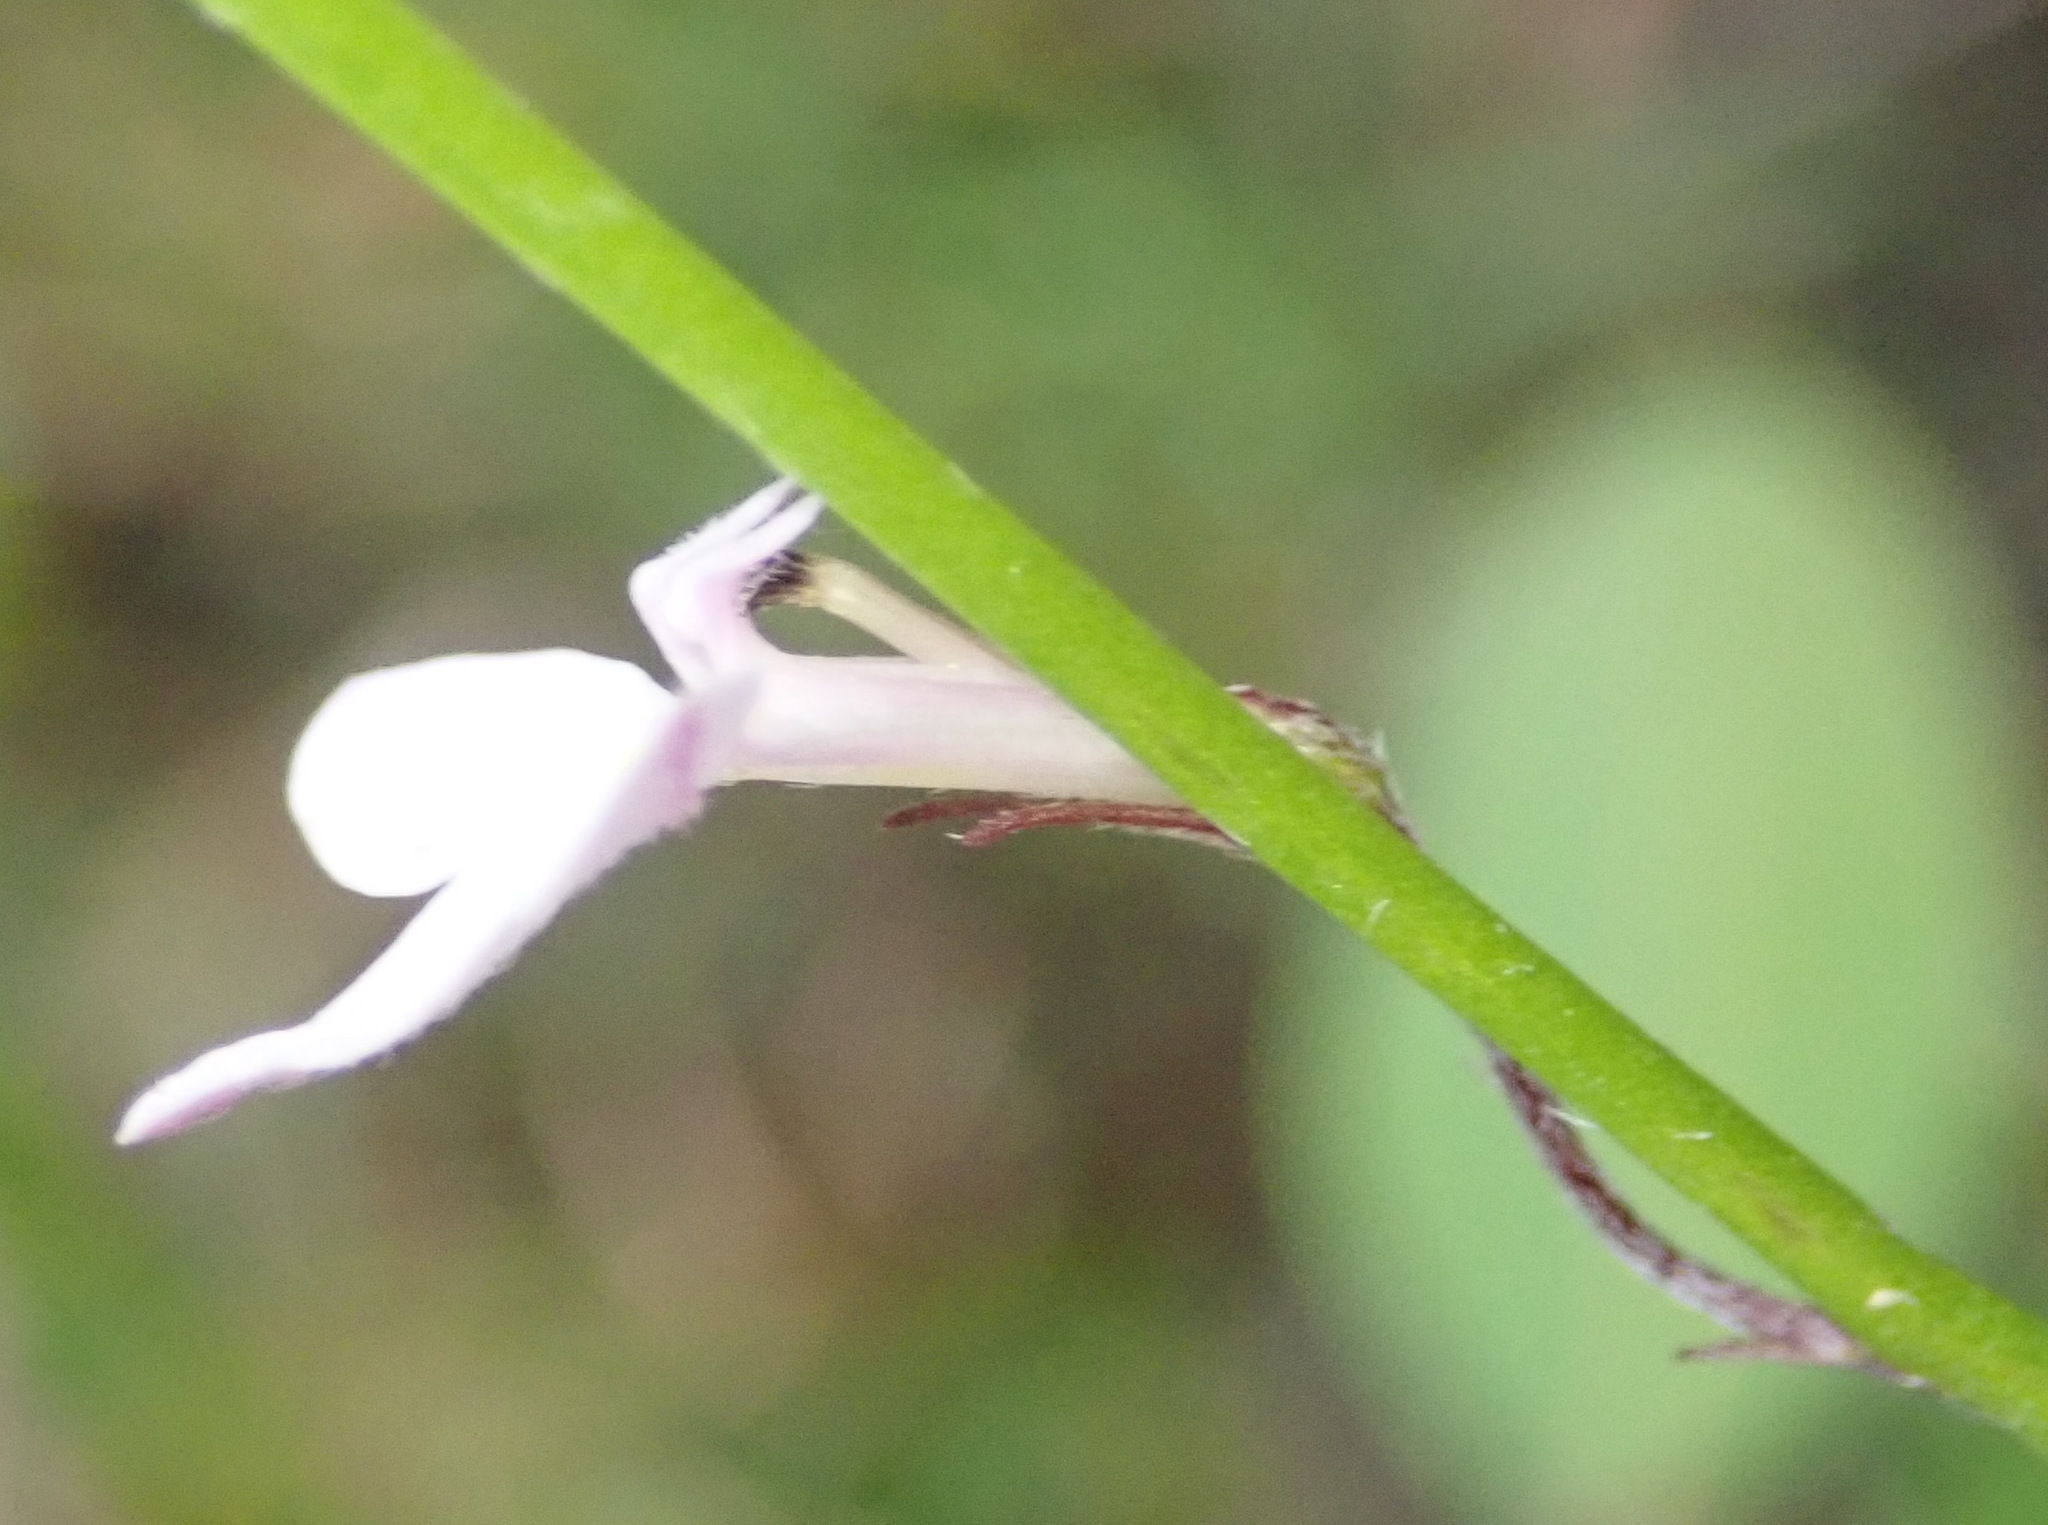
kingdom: Plantae
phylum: Tracheophyta
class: Magnoliopsida
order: Asterales
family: Campanulaceae
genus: Lobelia
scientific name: Lobelia patula
